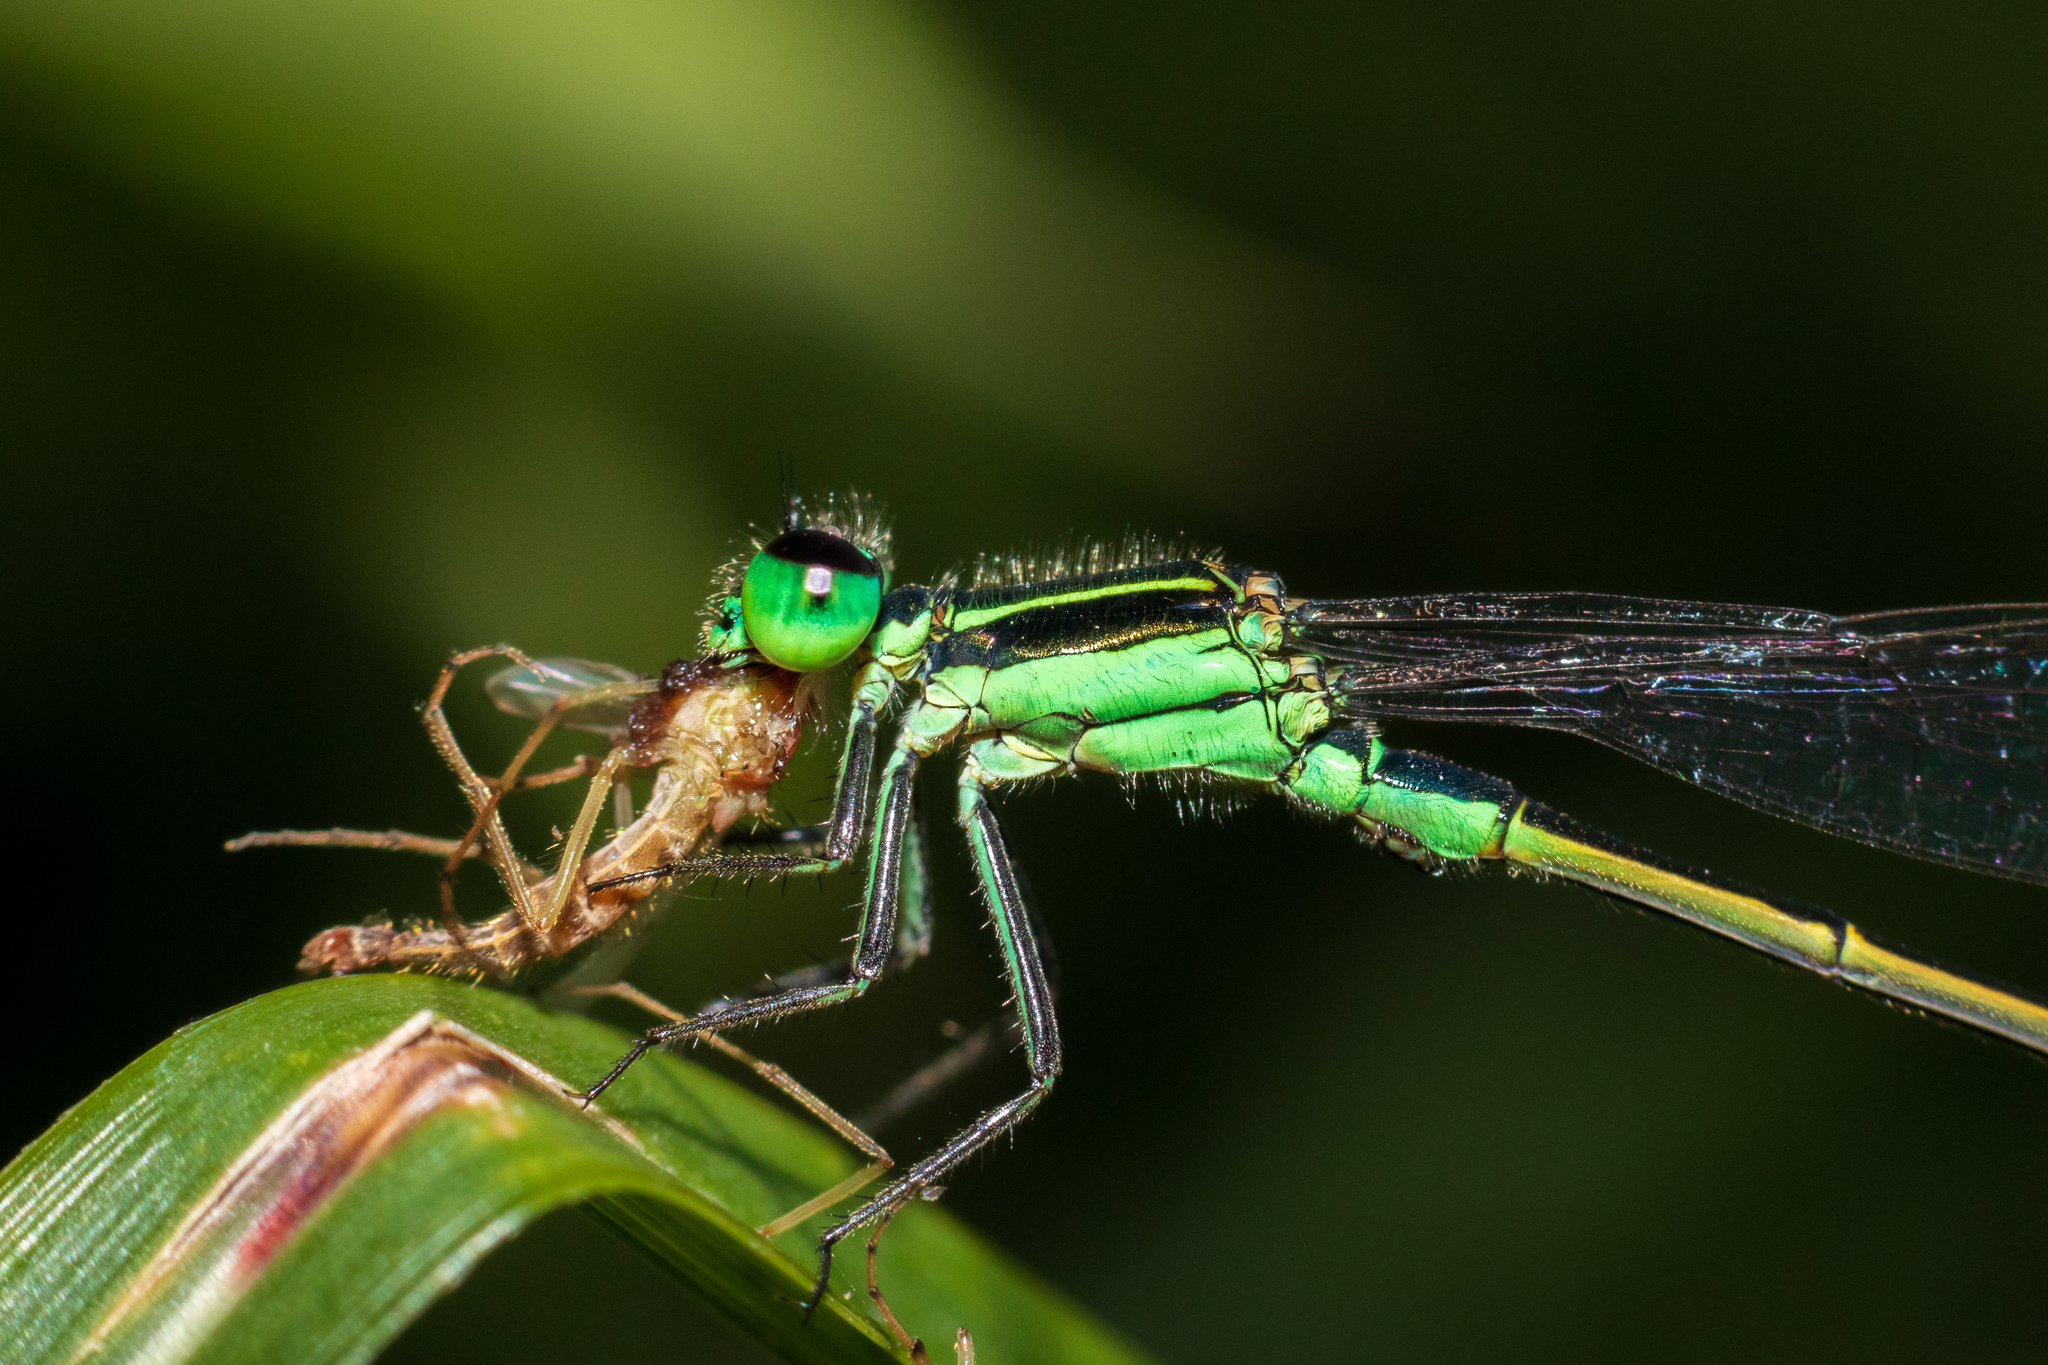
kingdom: Animalia
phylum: Arthropoda
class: Insecta
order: Odonata
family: Coenagrionidae
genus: Ischnura
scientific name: Ischnura ramburii
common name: Rambur's forktail
